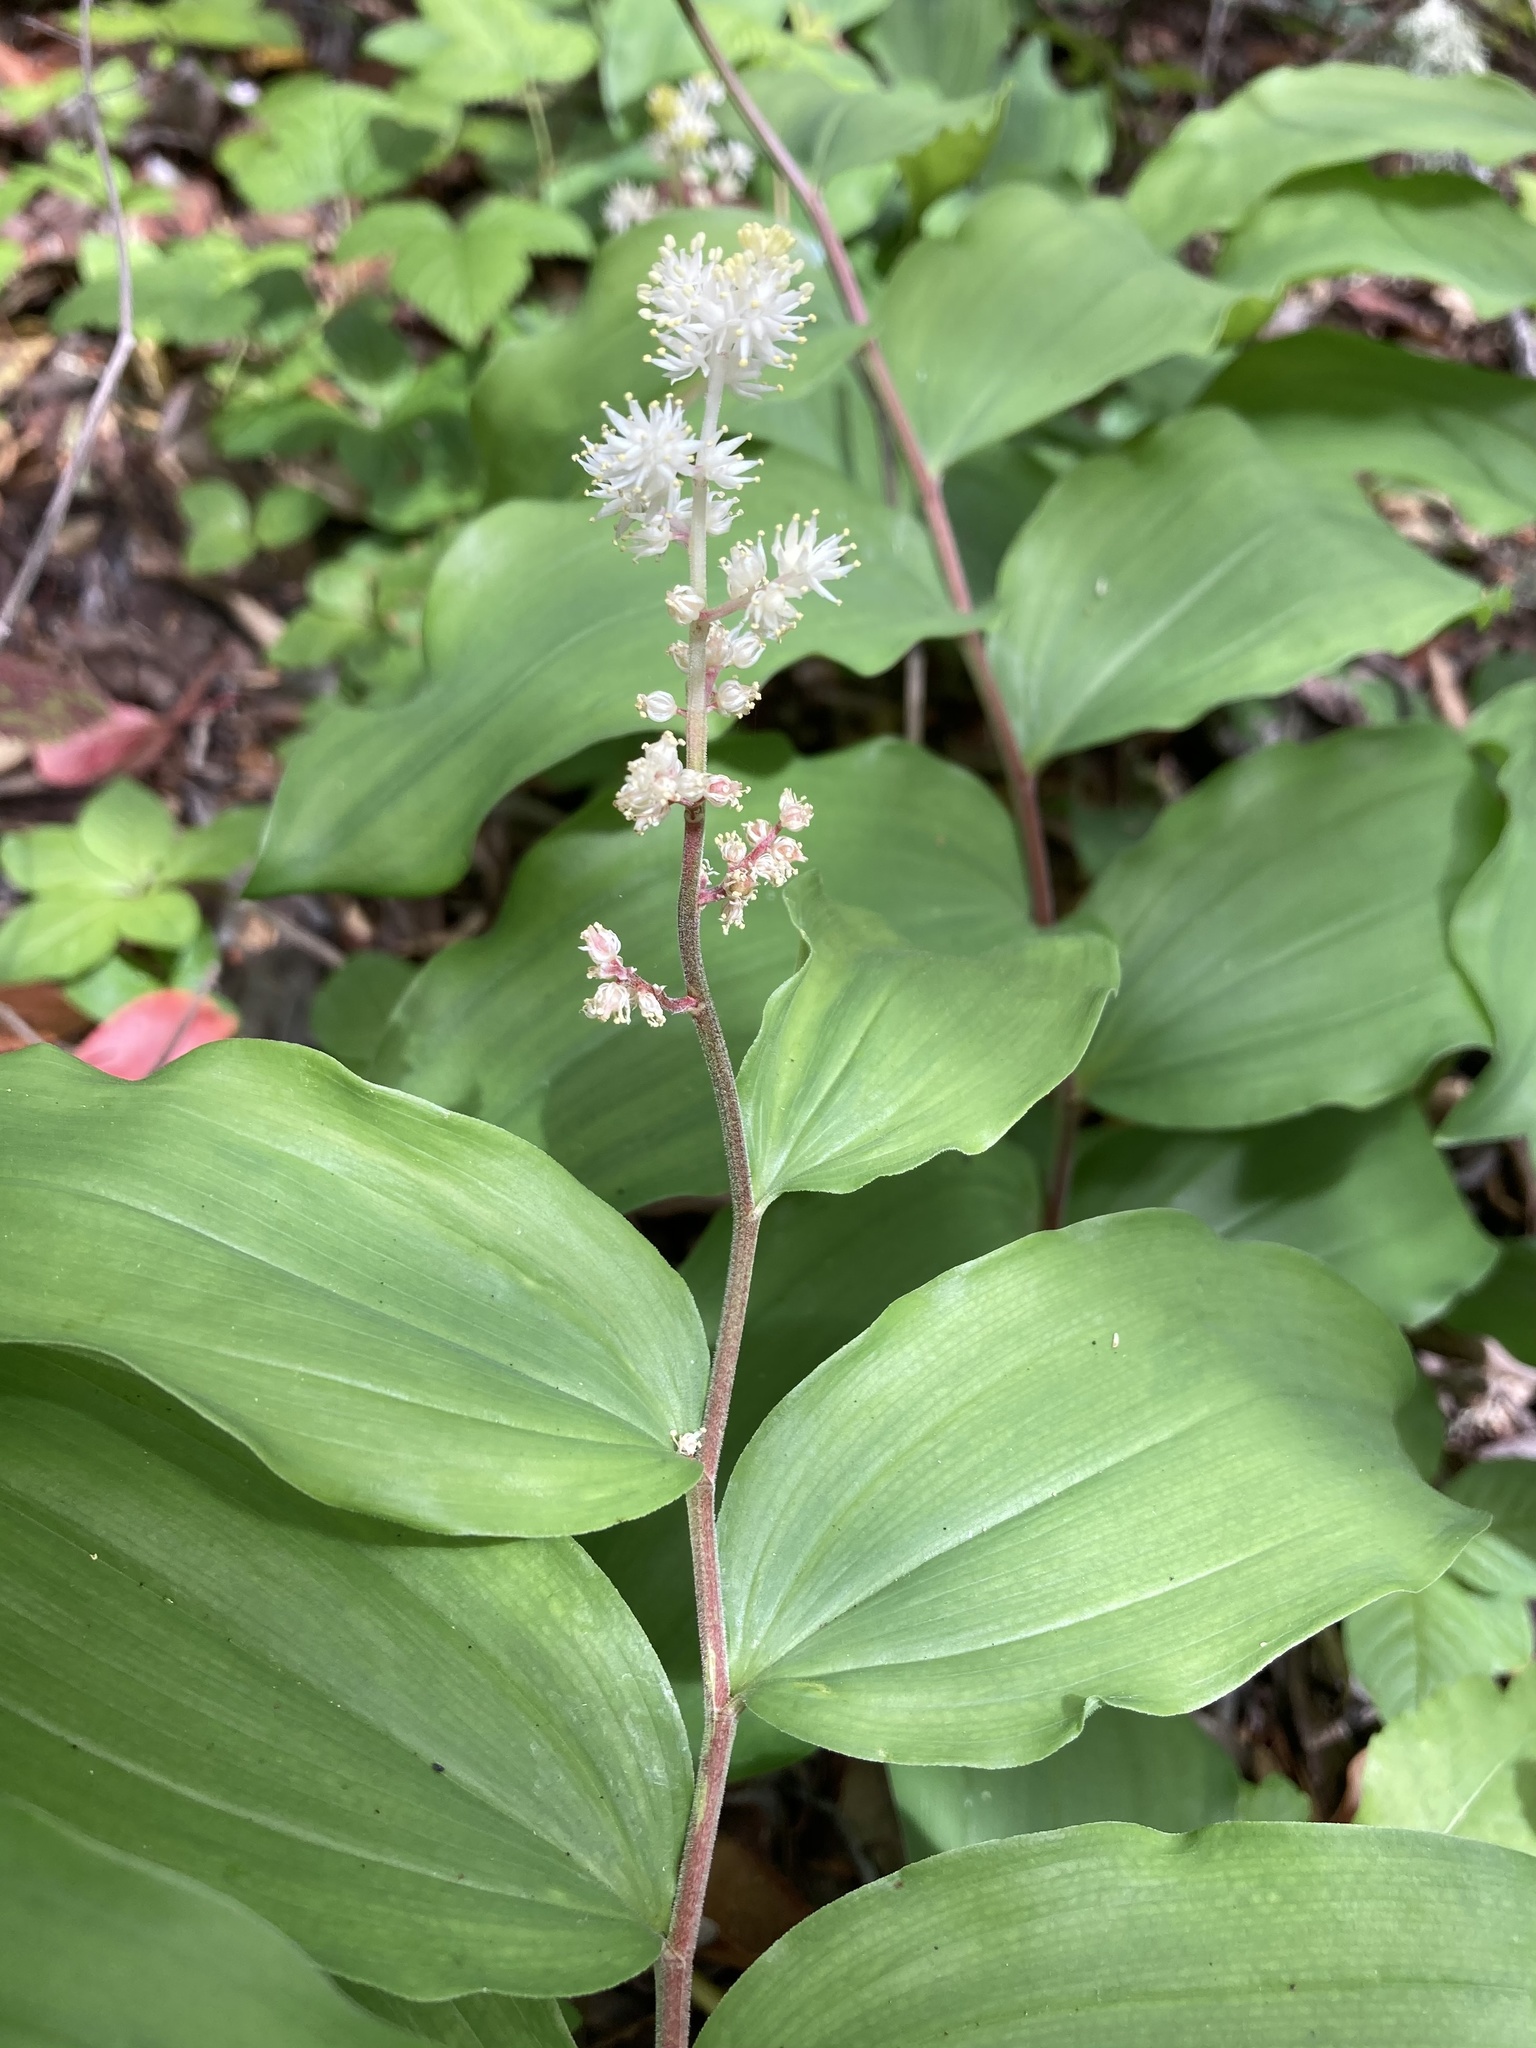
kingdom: Plantae
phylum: Tracheophyta
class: Liliopsida
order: Asparagales
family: Asparagaceae
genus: Maianthemum
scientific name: Maianthemum racemosum
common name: False spikenard
